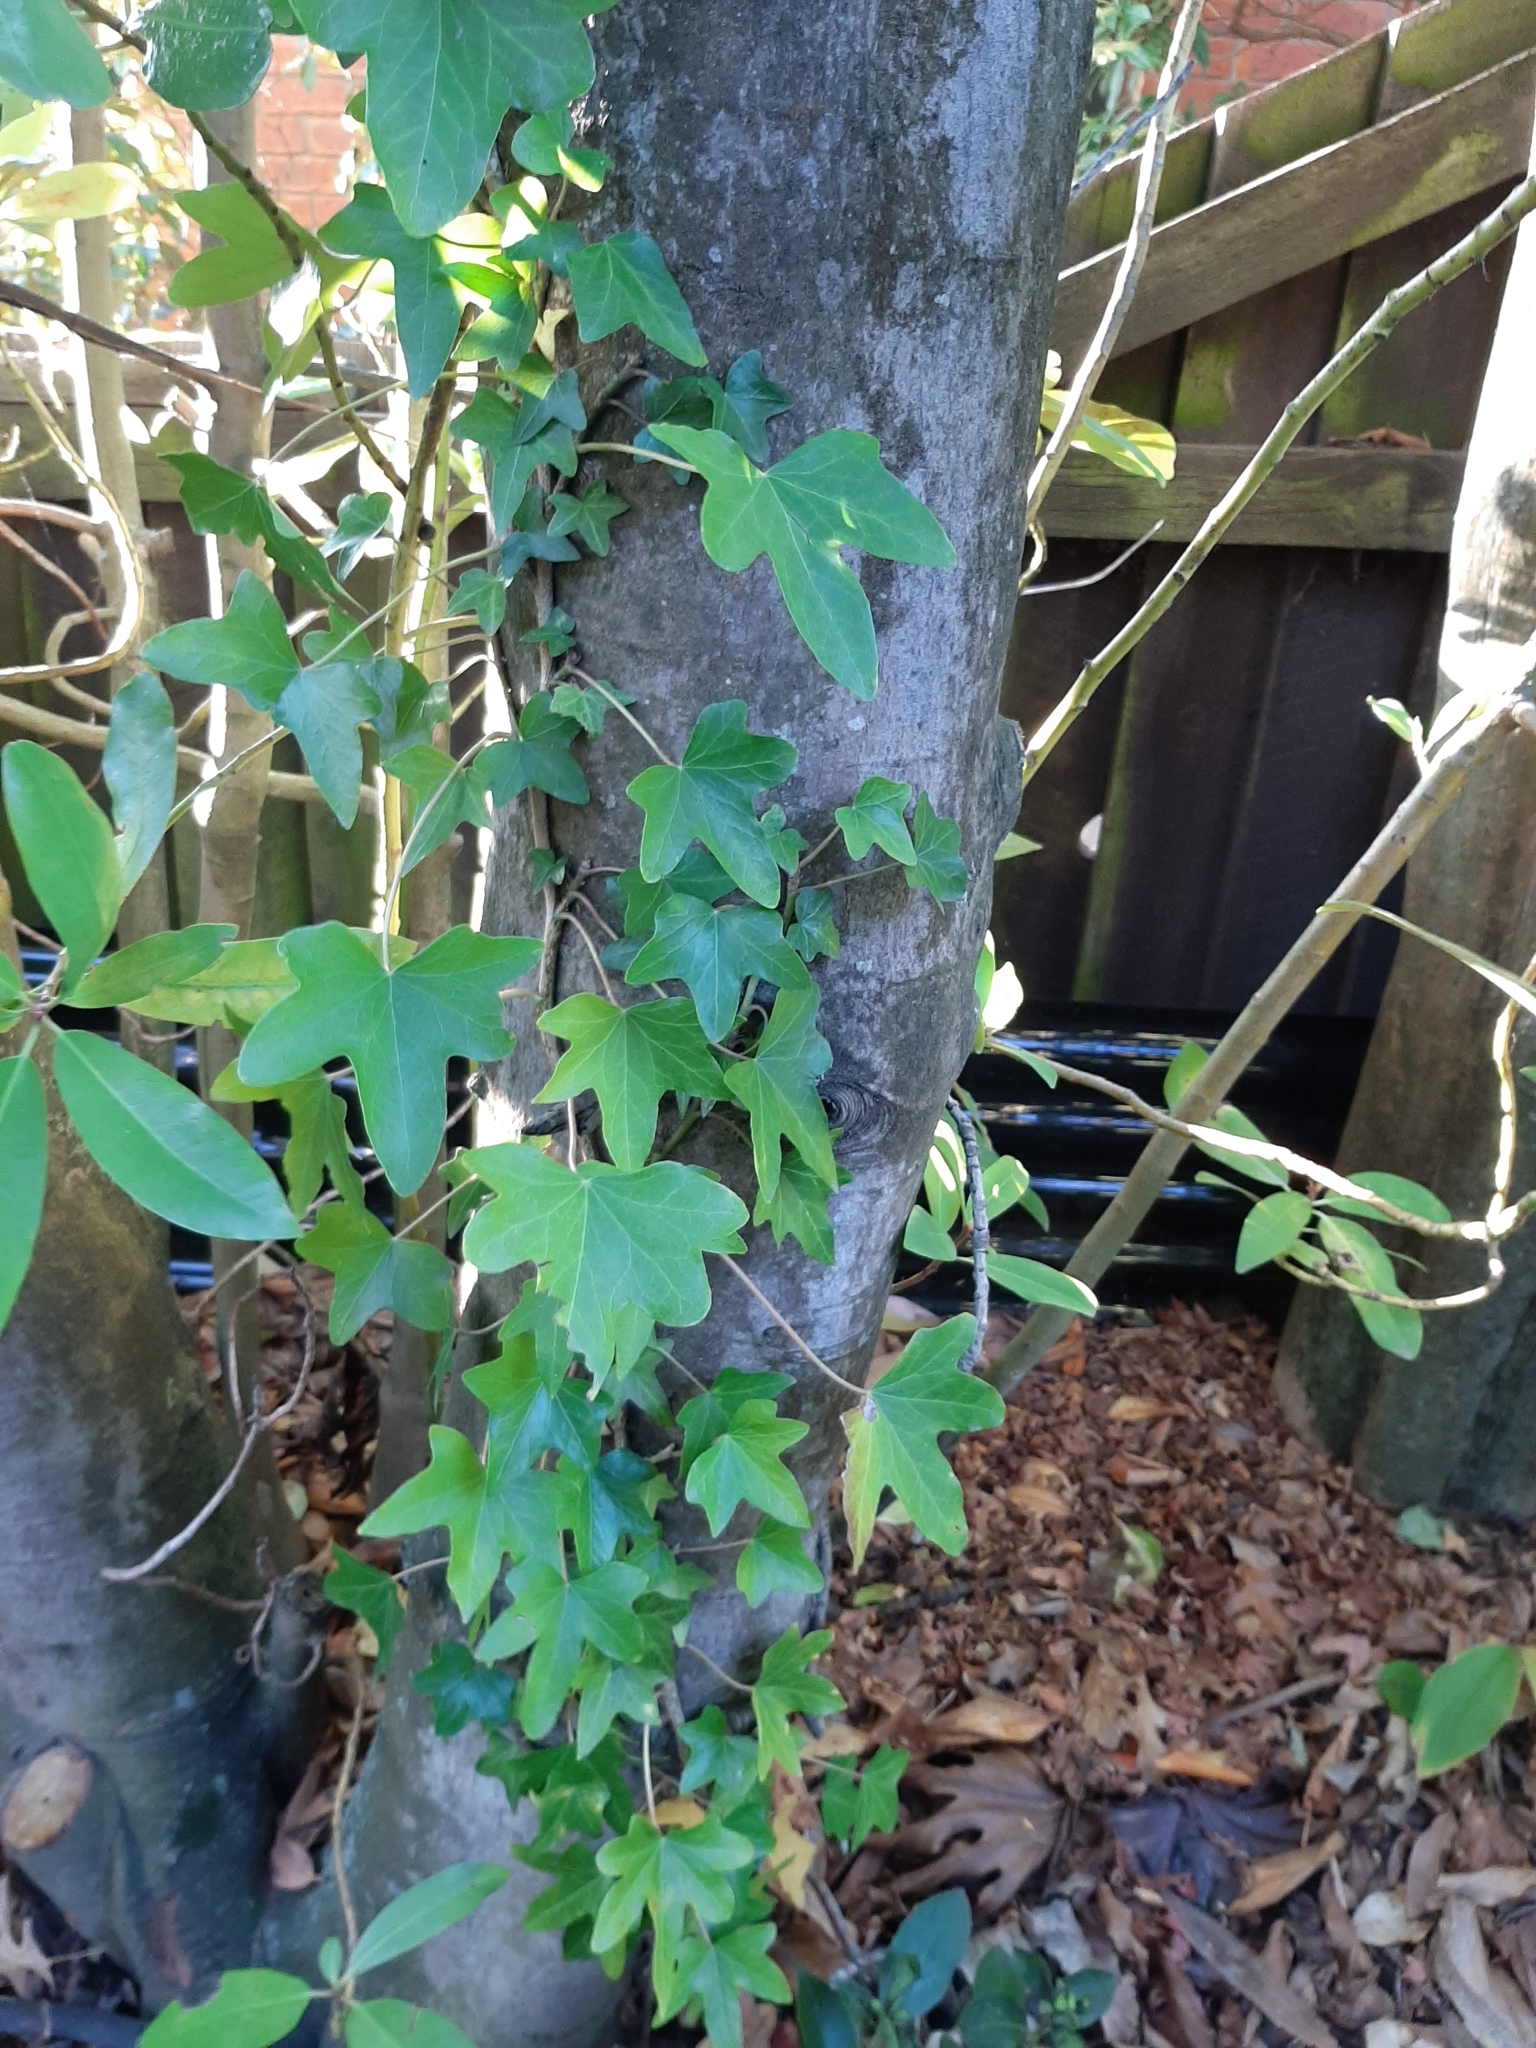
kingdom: Plantae
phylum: Tracheophyta
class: Magnoliopsida
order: Apiales
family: Araliaceae
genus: Hedera
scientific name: Hedera helix
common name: Ivy
